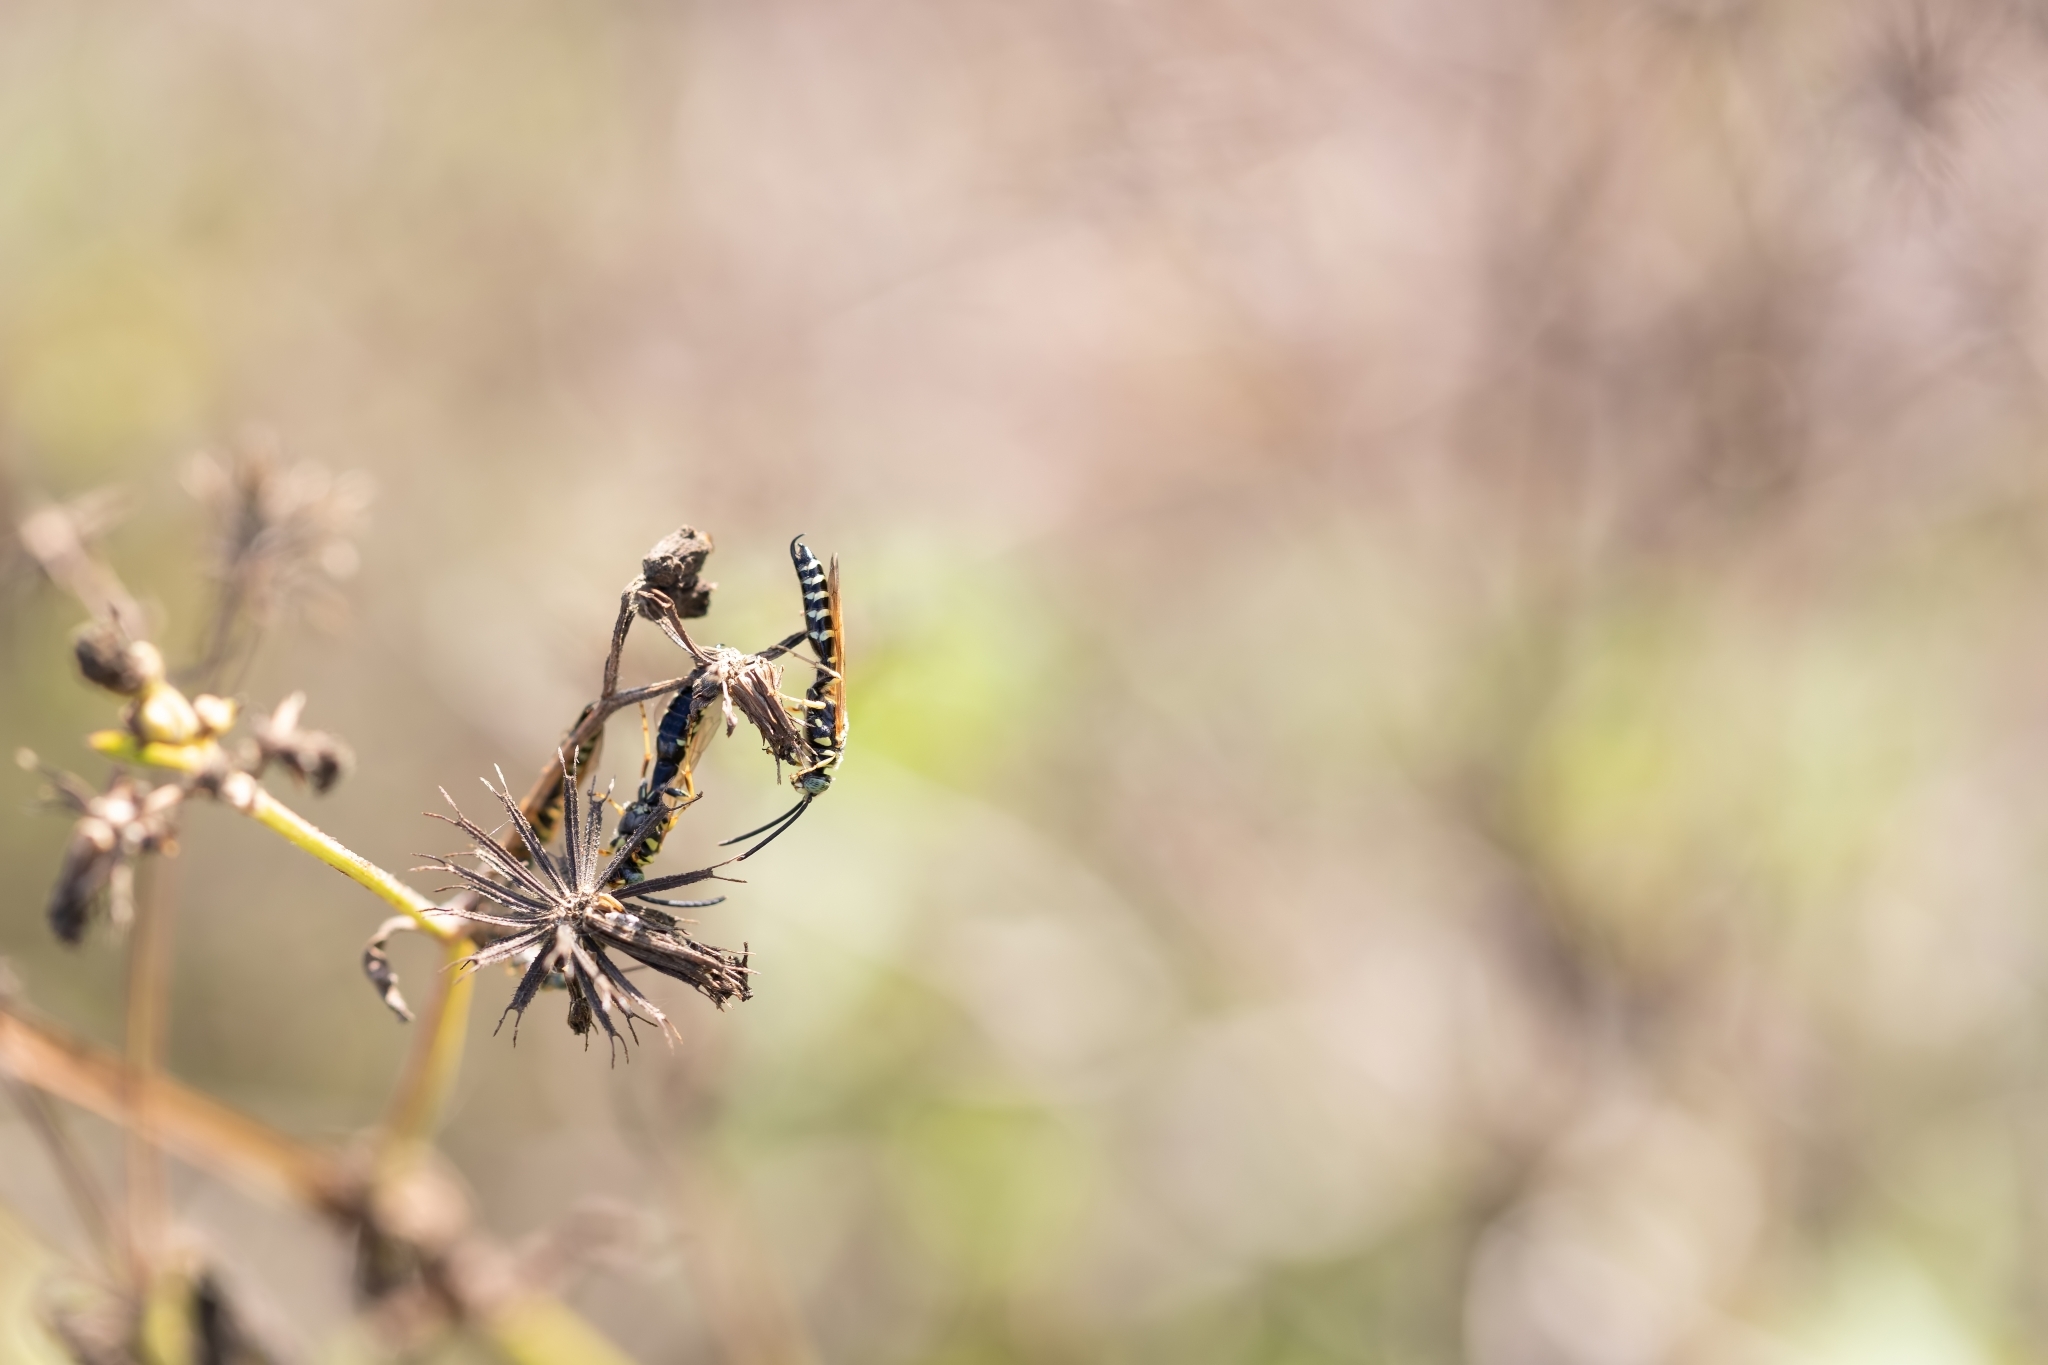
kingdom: Animalia
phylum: Arthropoda
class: Insecta
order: Hymenoptera
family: Tiphiidae
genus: Myzinum
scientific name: Myzinum carolinianum
